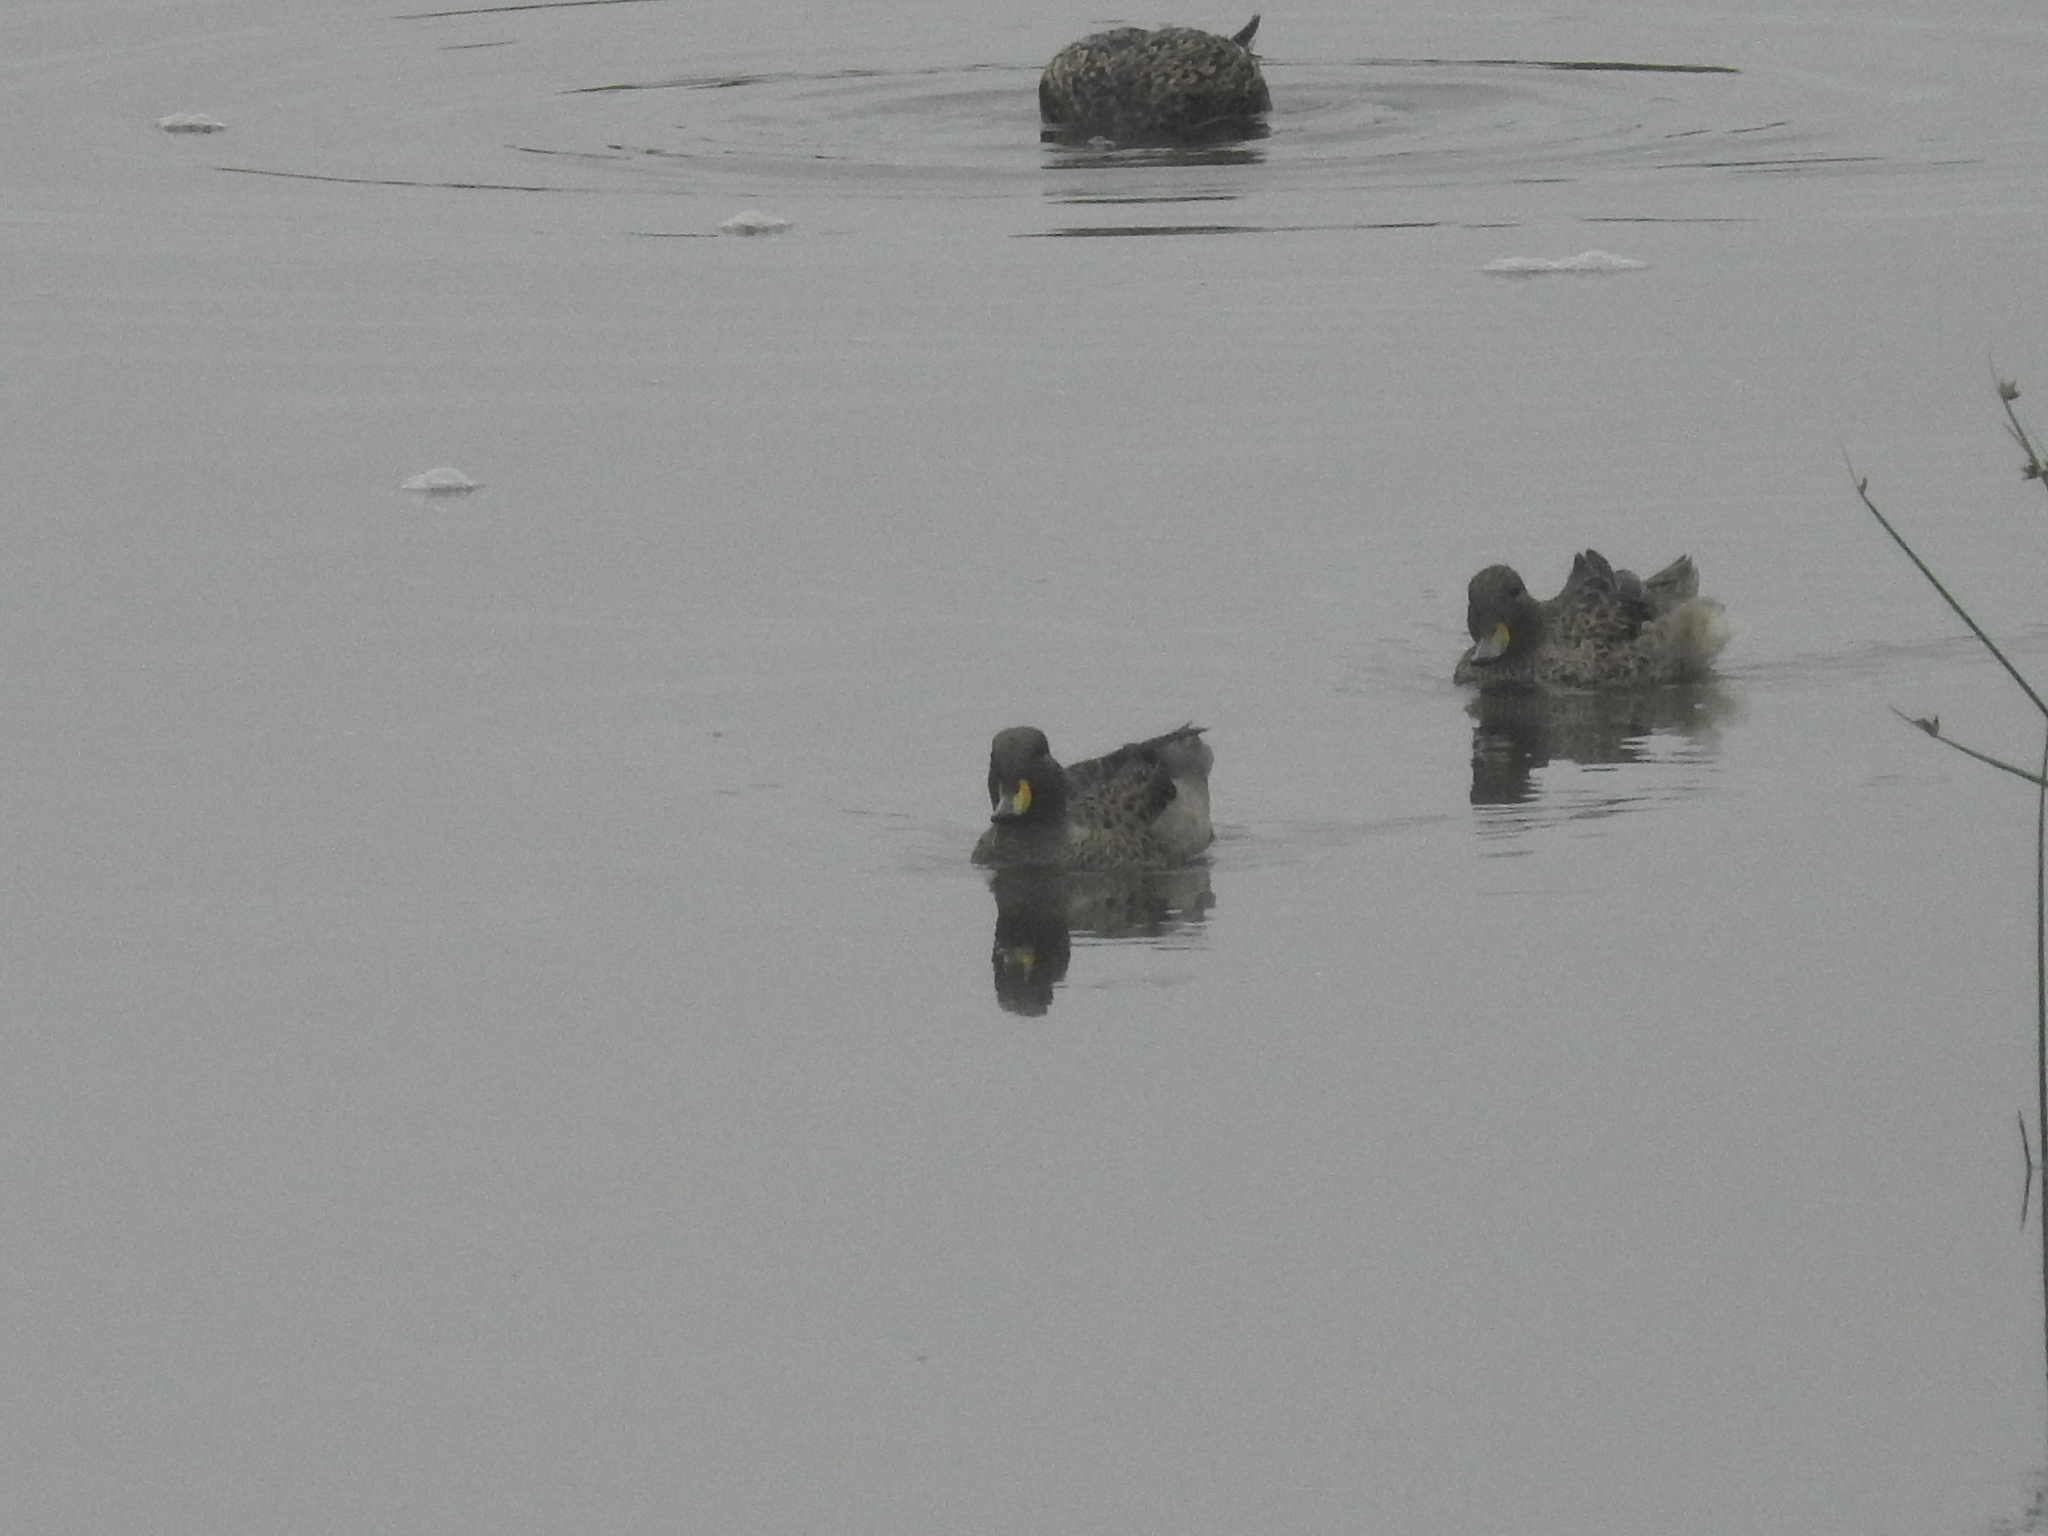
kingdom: Animalia
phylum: Chordata
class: Aves
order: Anseriformes
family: Anatidae
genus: Anas
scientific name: Anas flavirostris
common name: Yellow-billed teal
